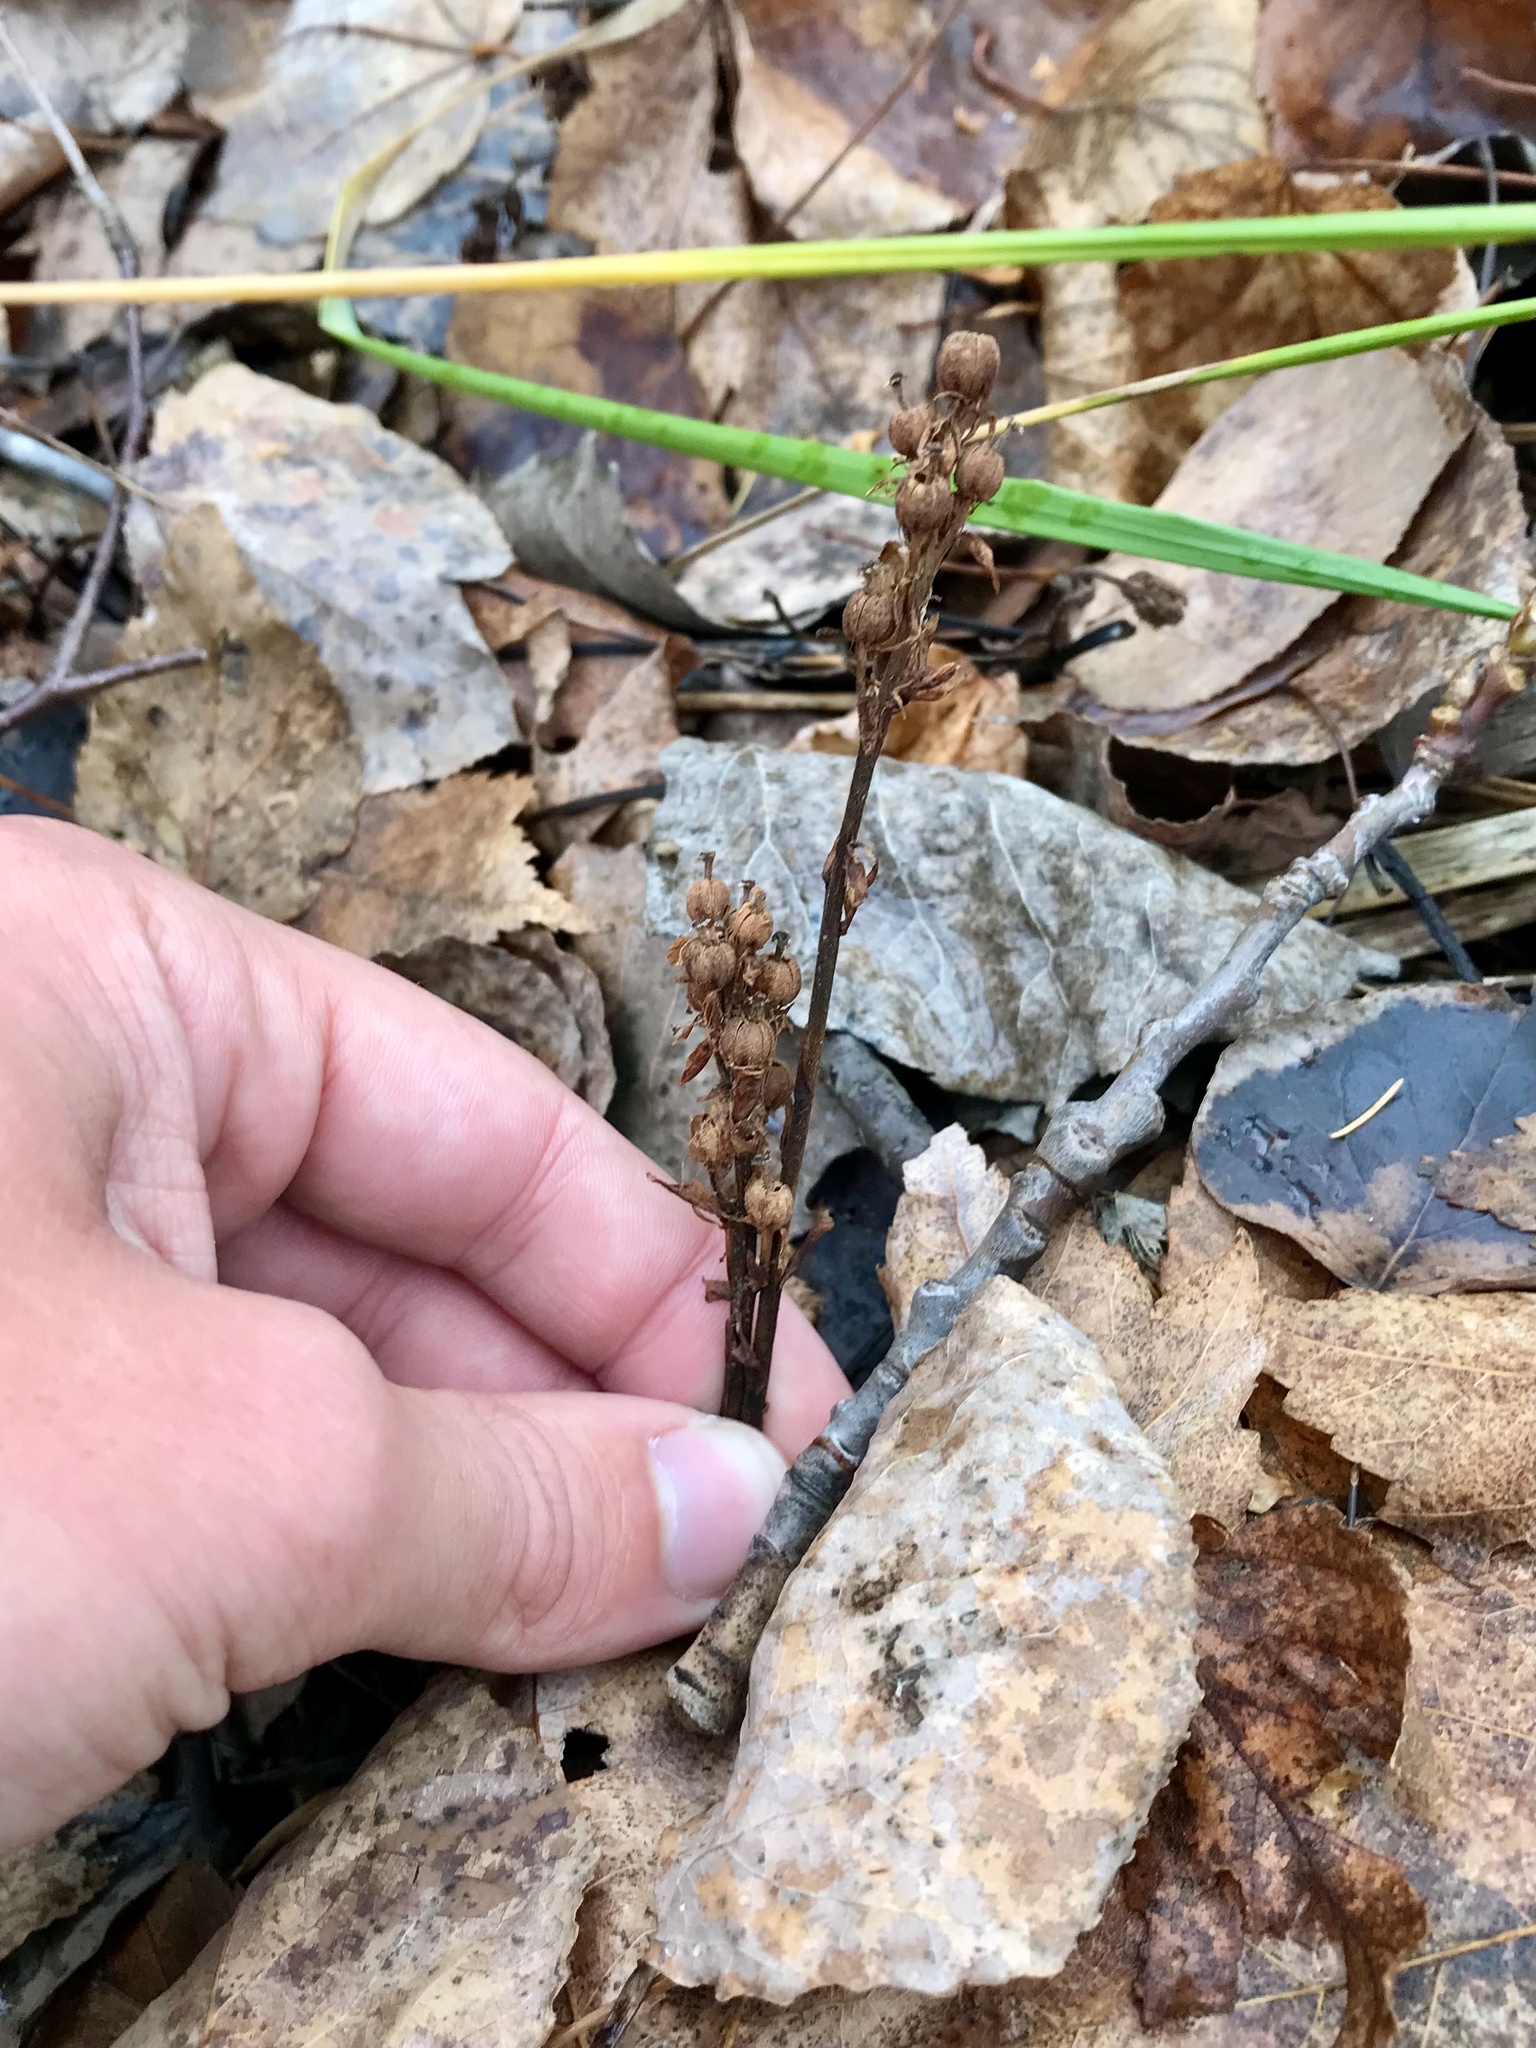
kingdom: Plantae
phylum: Tracheophyta
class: Magnoliopsida
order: Ericales
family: Ericaceae
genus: Hypopitys
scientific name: Hypopitys monotropa
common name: Yellow bird's-nest
